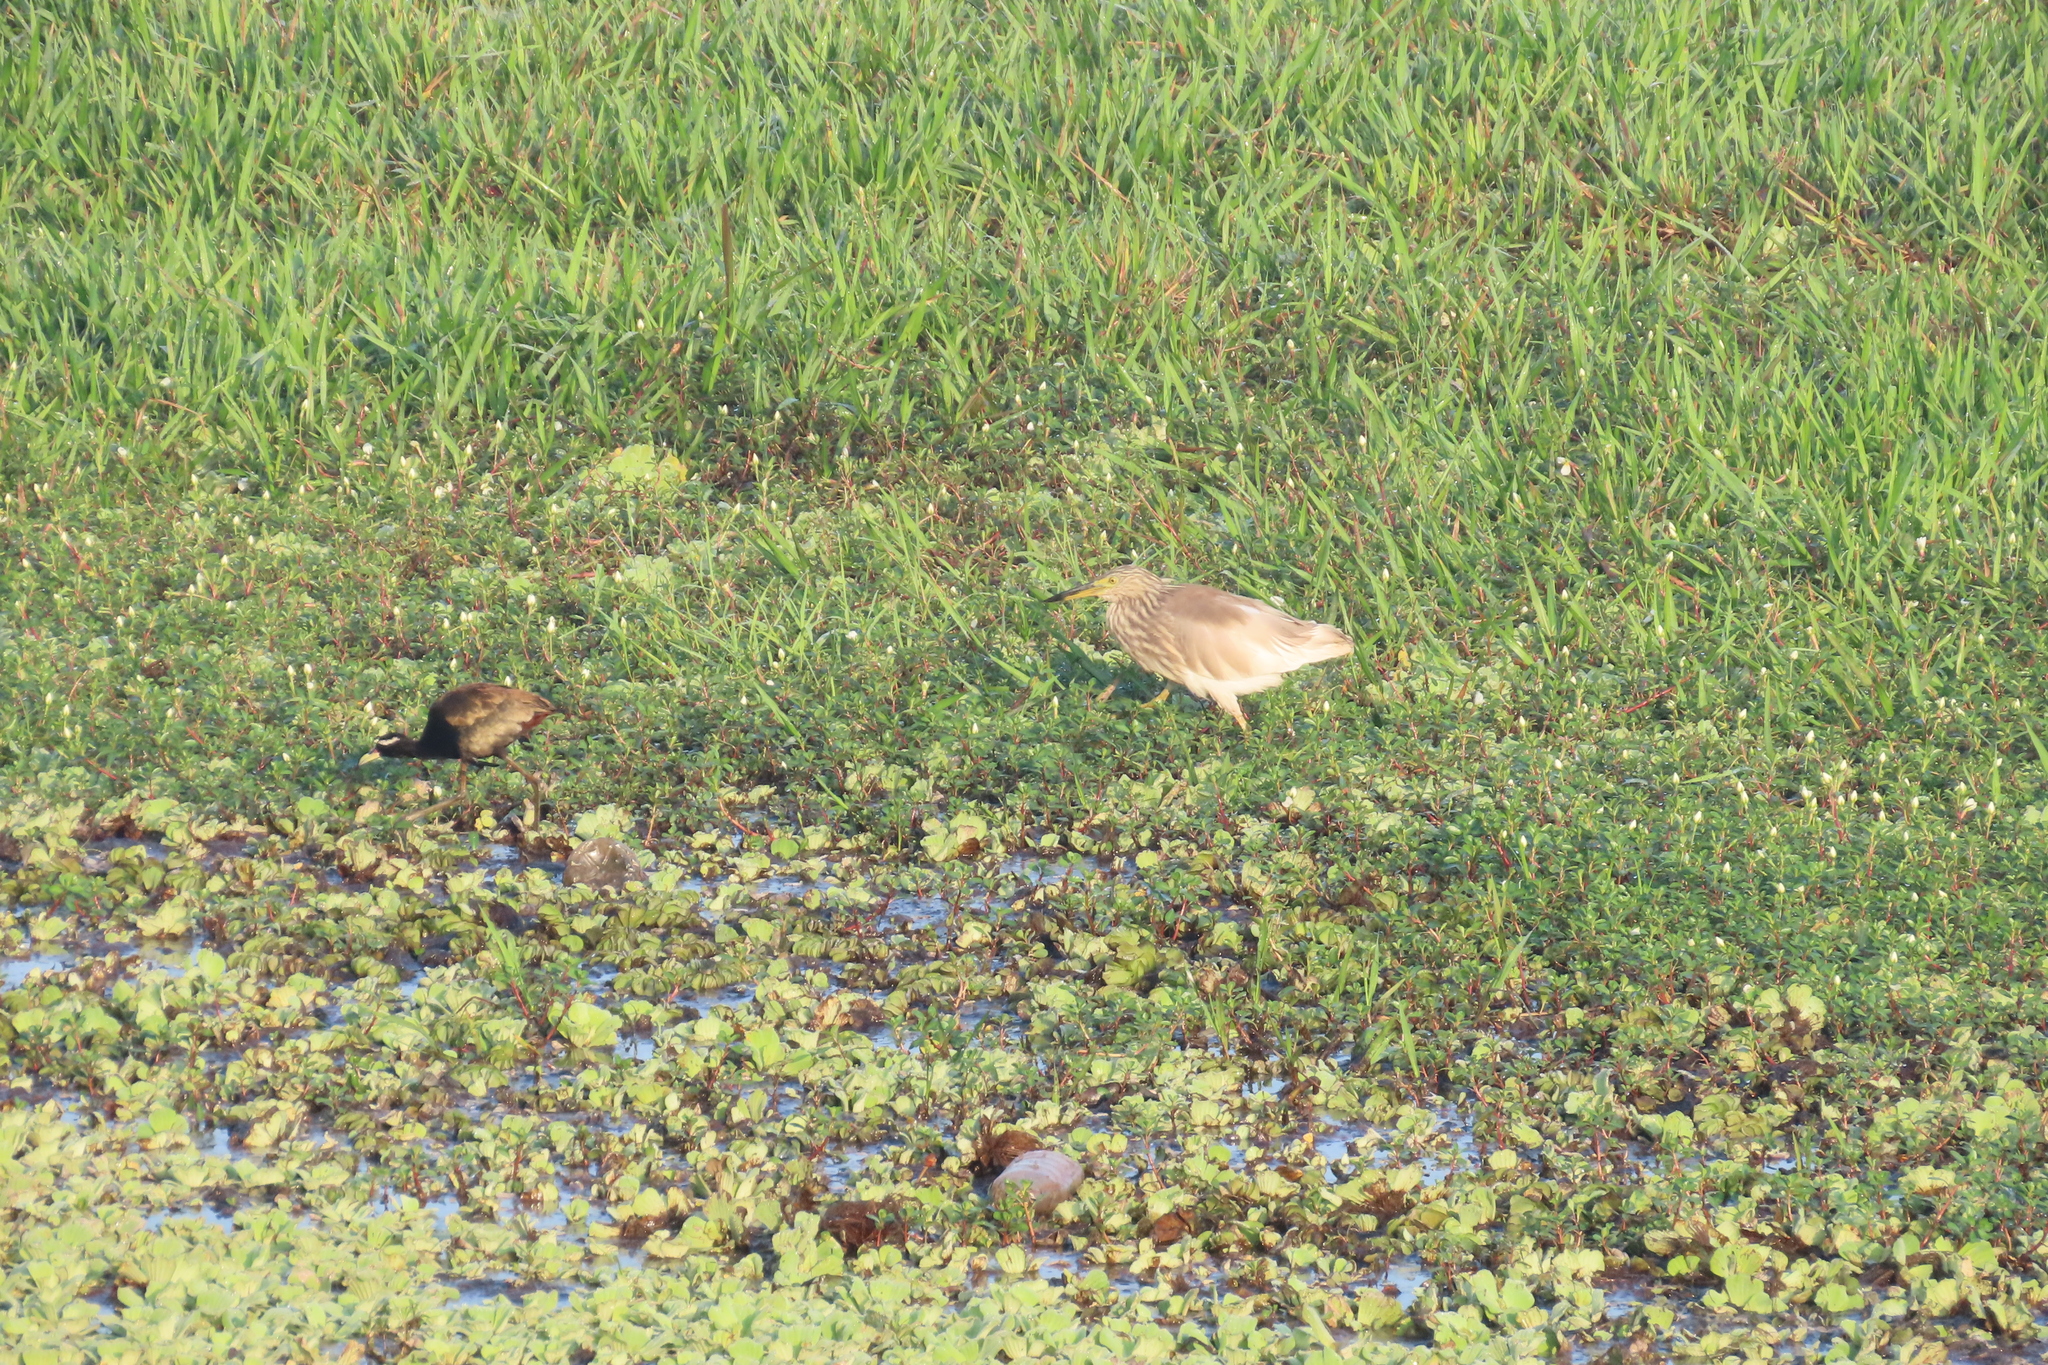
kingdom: Animalia
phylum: Chordata
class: Aves
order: Pelecaniformes
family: Ardeidae
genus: Ardeola
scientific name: Ardeola grayii
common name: Indian pond heron
